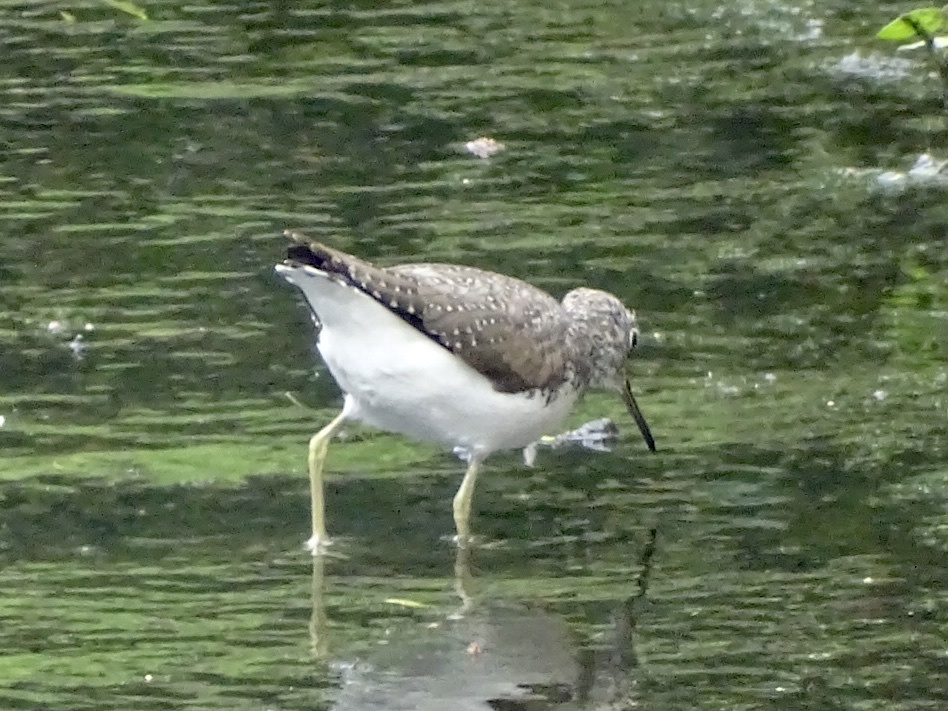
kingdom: Animalia
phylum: Chordata
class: Aves
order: Charadriiformes
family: Scolopacidae
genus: Tringa
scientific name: Tringa ochropus
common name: Green sandpiper
